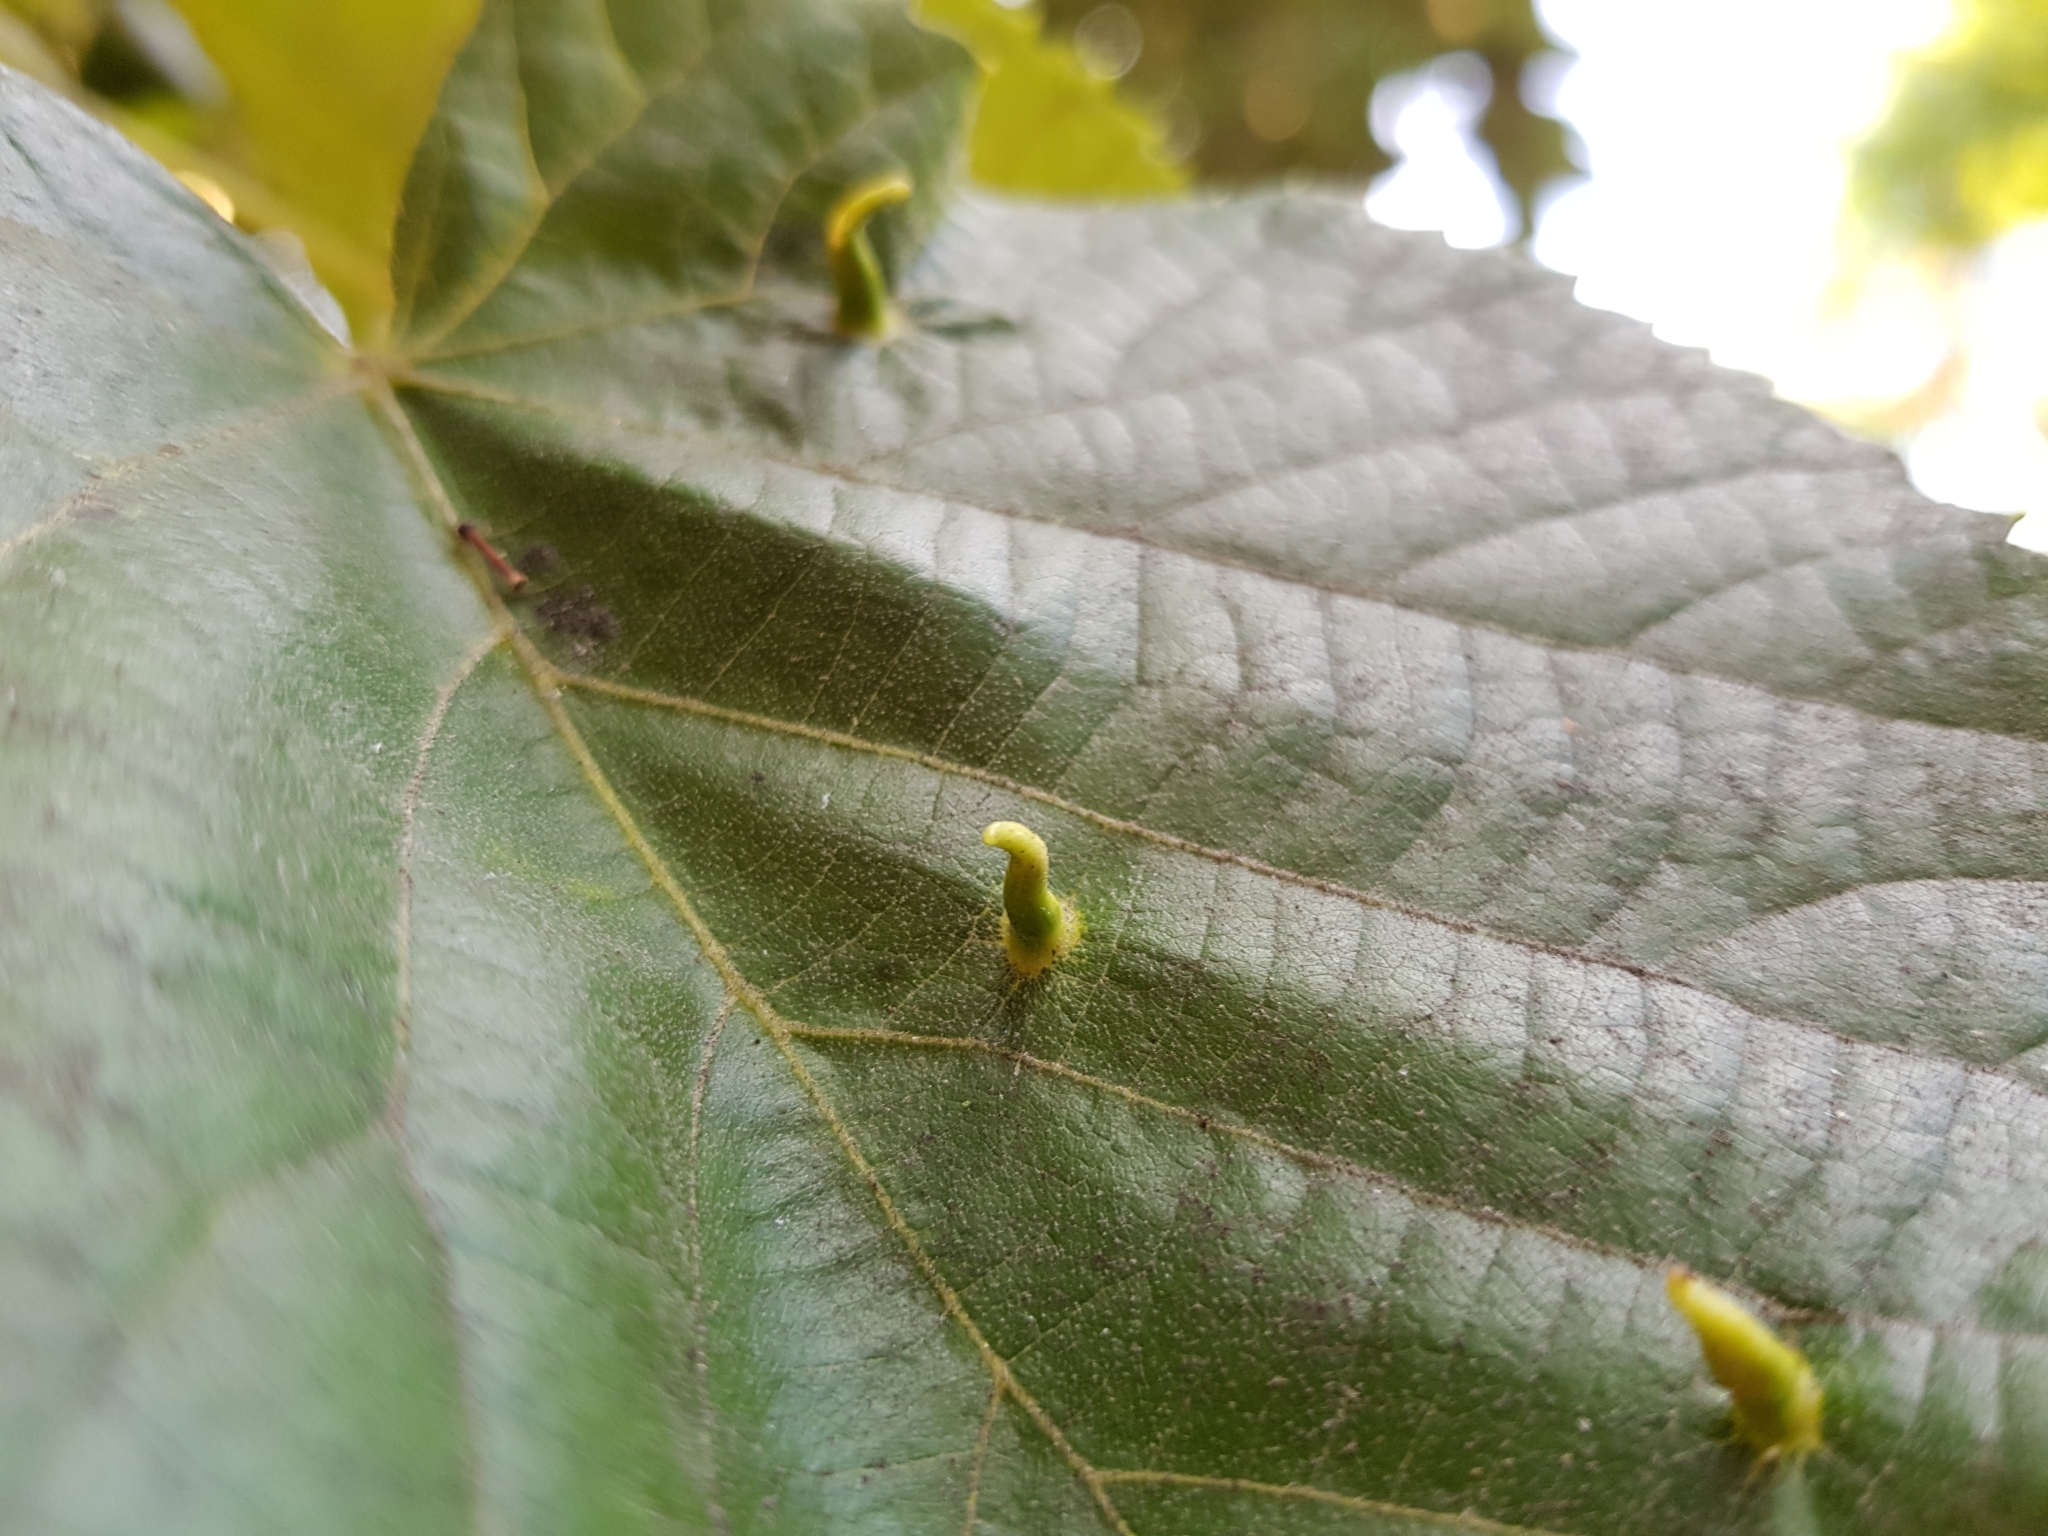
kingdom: Animalia
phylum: Arthropoda
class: Arachnida
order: Trombidiformes
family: Eriophyidae
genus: Eriophyes
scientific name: Eriophyes tiliae
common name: Red nail gall mite
